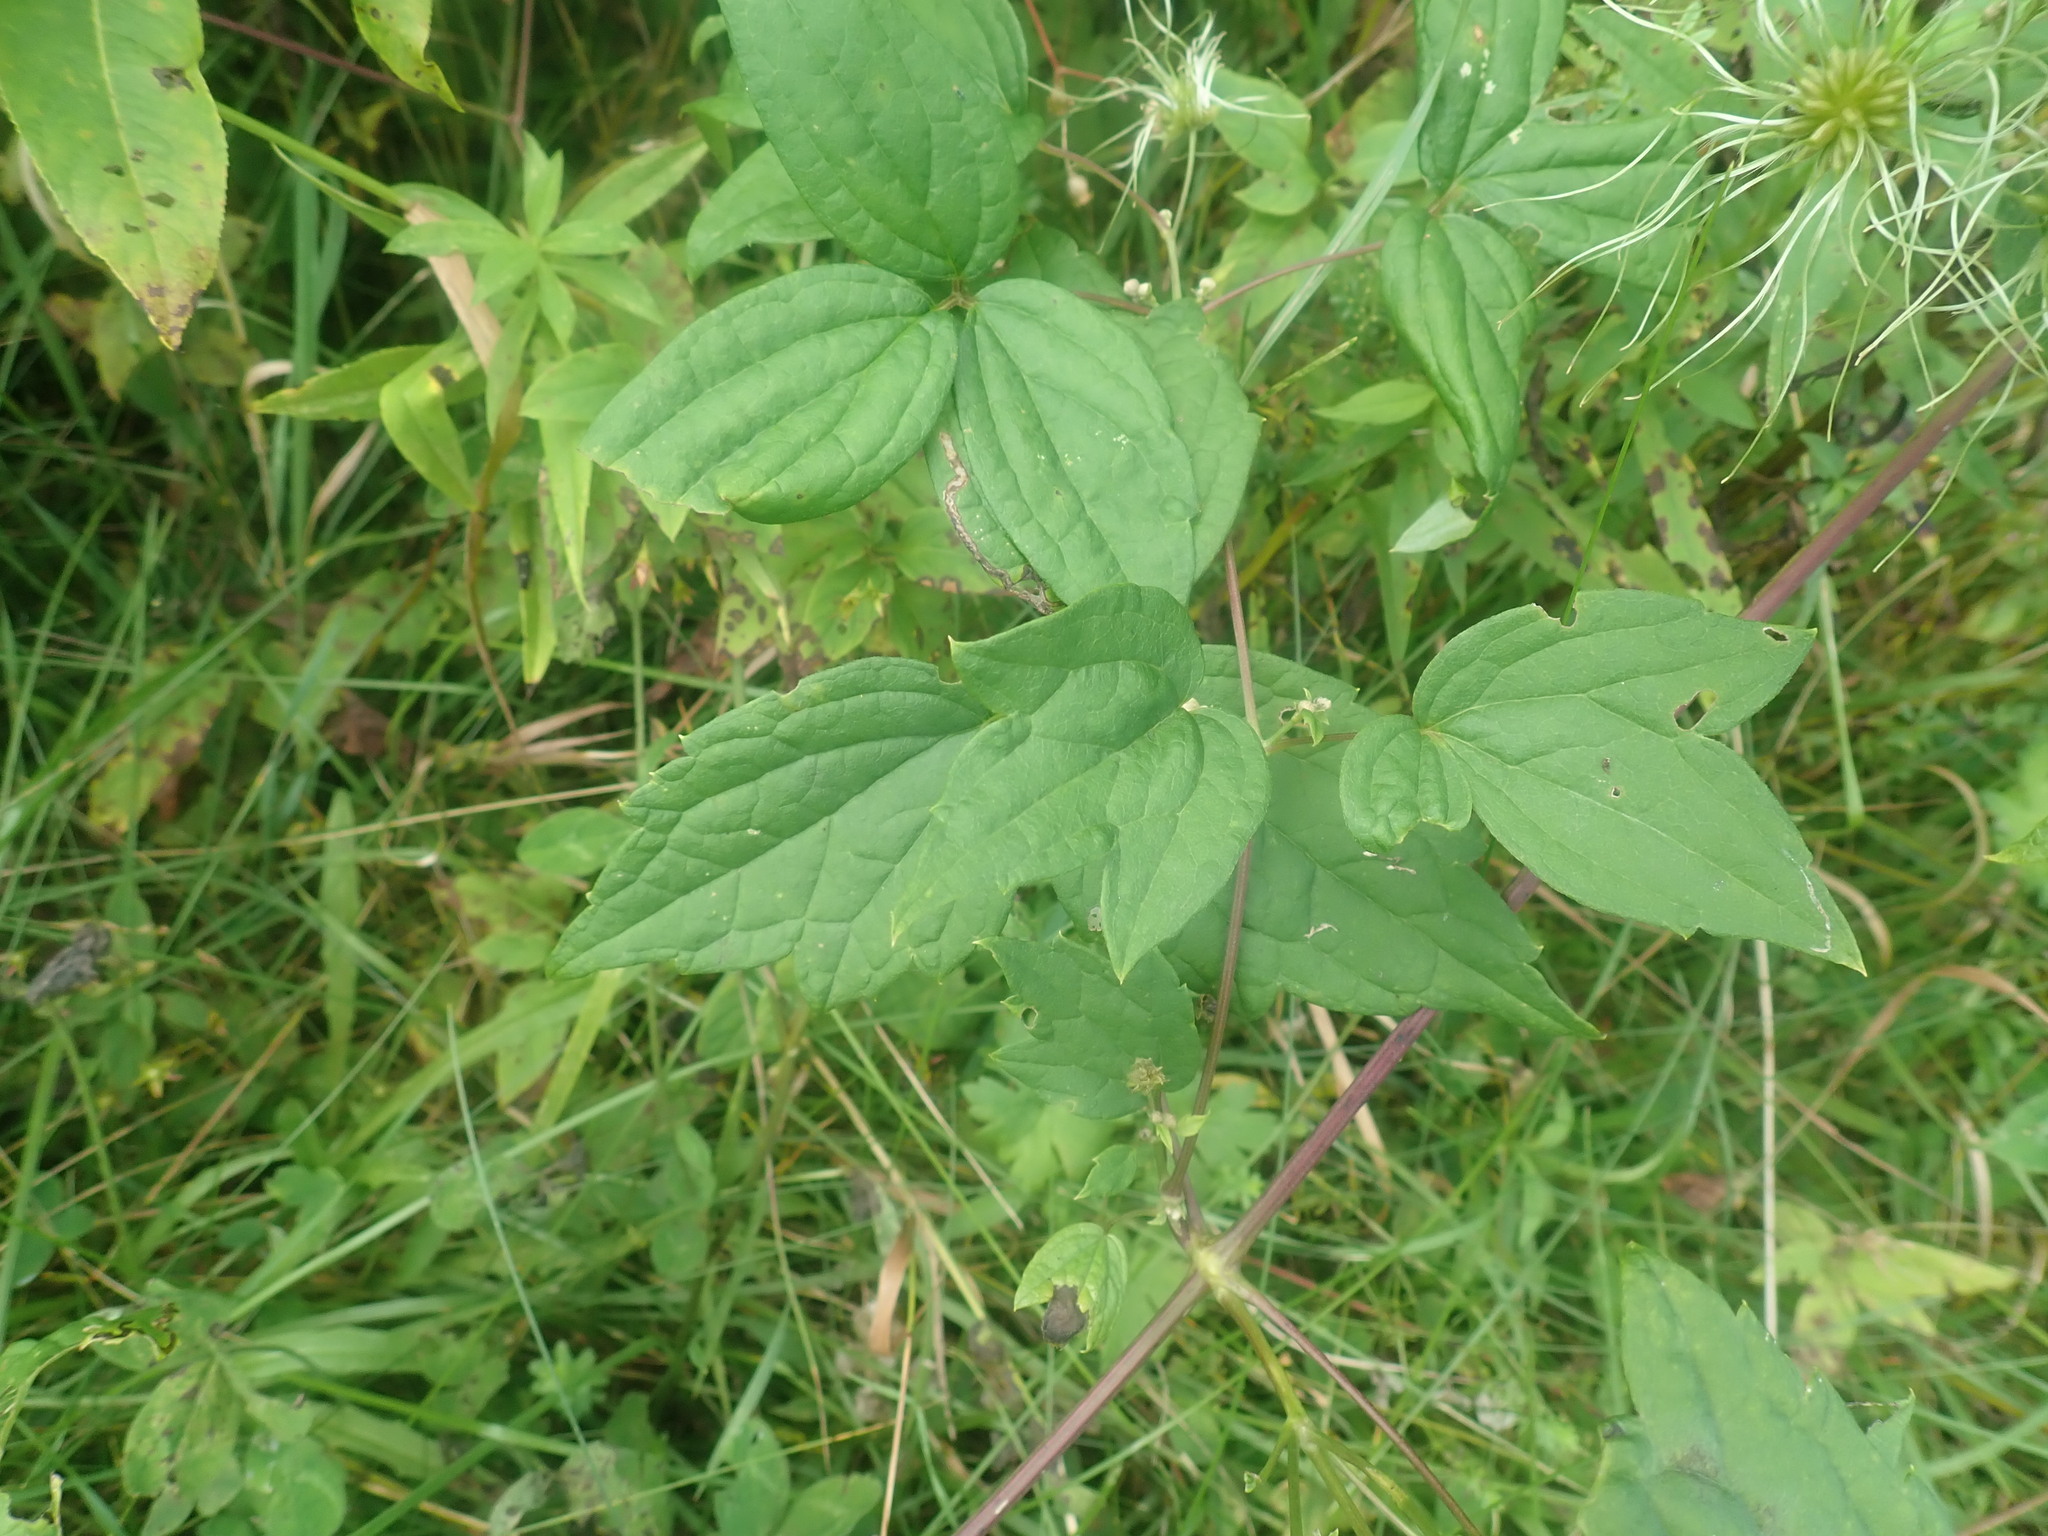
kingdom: Plantae
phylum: Tracheophyta
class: Magnoliopsida
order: Ranunculales
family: Ranunculaceae
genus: Clematis
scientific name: Clematis virginiana
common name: Virgin's-bower
